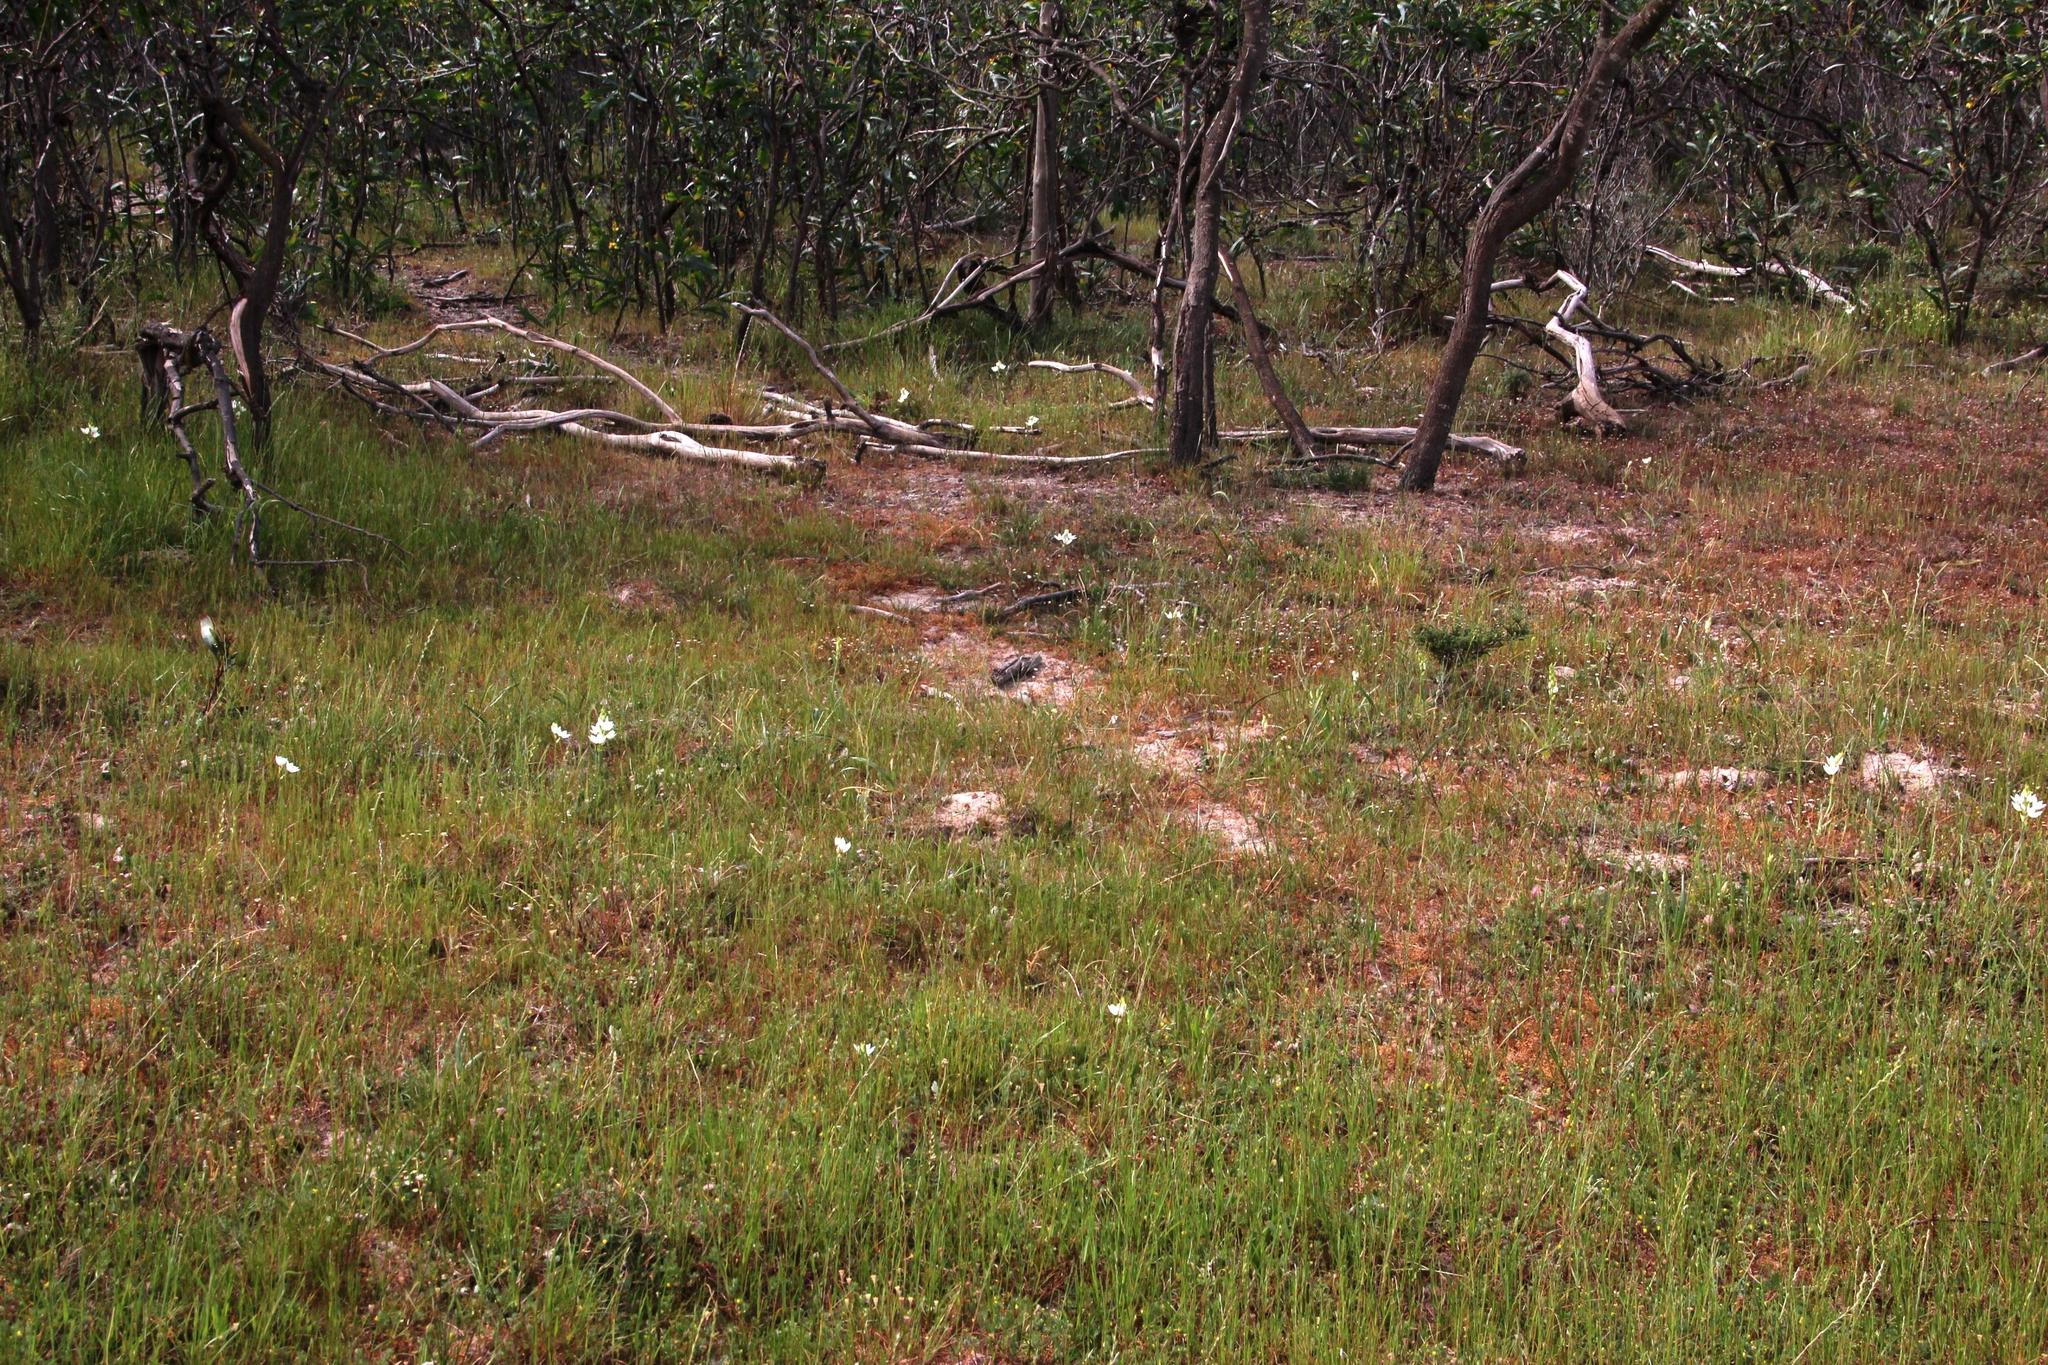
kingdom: Plantae
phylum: Tracheophyta
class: Liliopsida
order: Asparagales
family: Asparagaceae
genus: Ornithogalum
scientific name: Ornithogalum thyrsoides
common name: Chincherinchee
